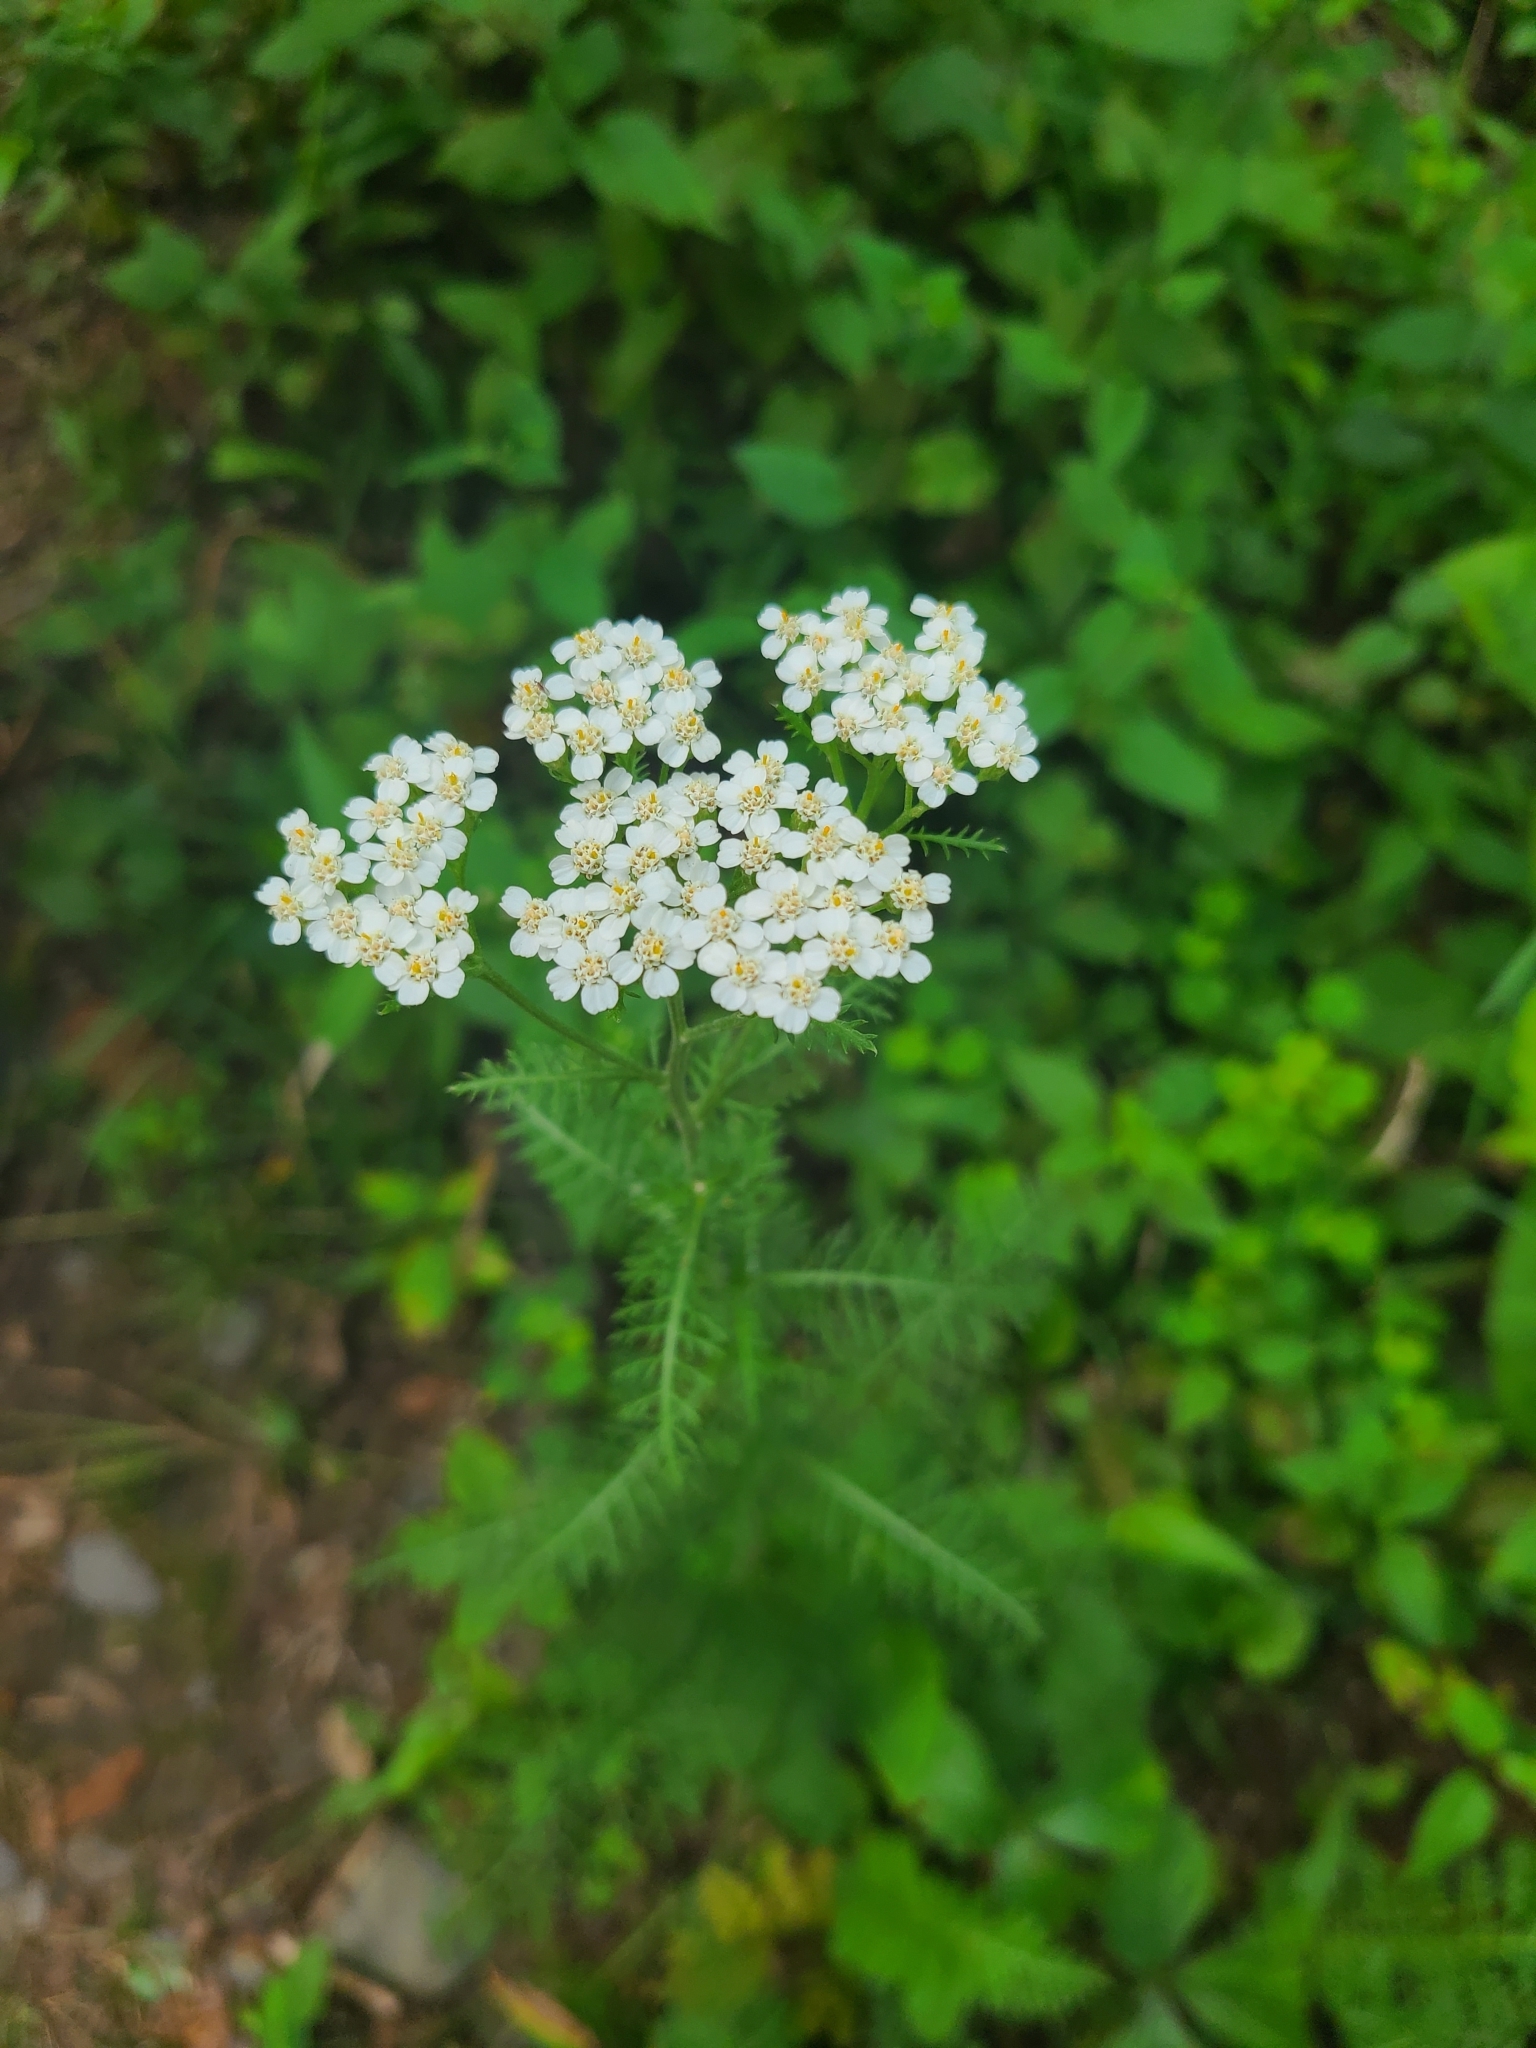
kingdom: Plantae
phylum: Tracheophyta
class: Magnoliopsida
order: Asterales
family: Asteraceae
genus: Achillea
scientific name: Achillea millefolium
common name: Yarrow
